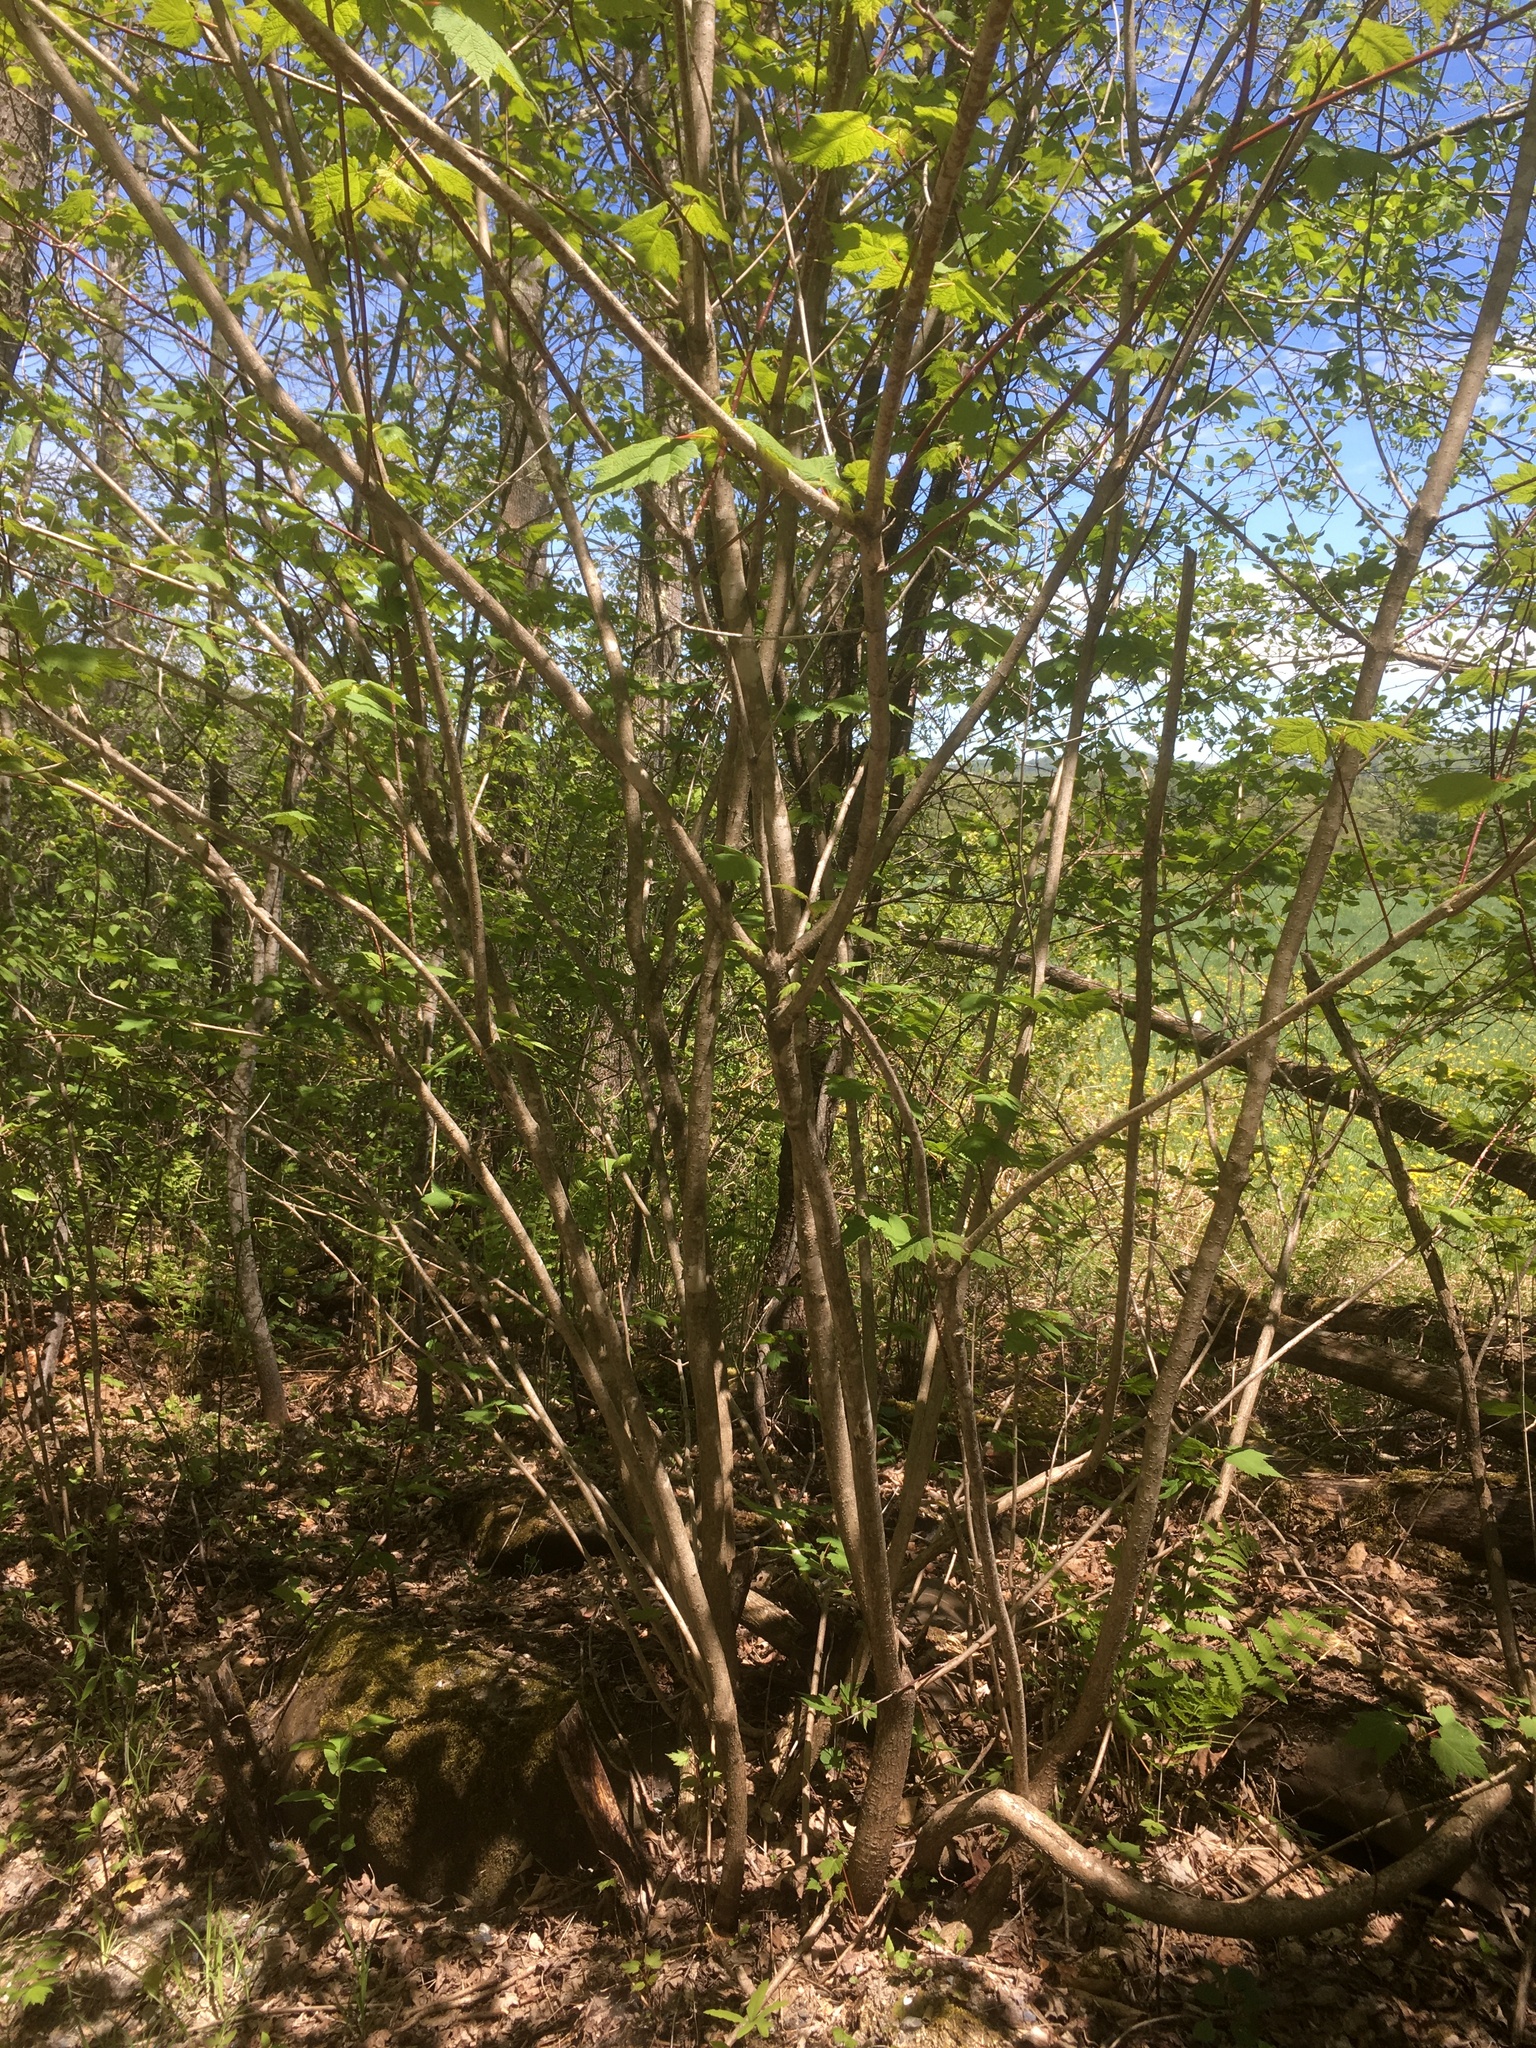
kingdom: Plantae
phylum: Tracheophyta
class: Magnoliopsida
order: Sapindales
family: Sapindaceae
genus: Acer
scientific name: Acer spicatum
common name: Mountain maple
